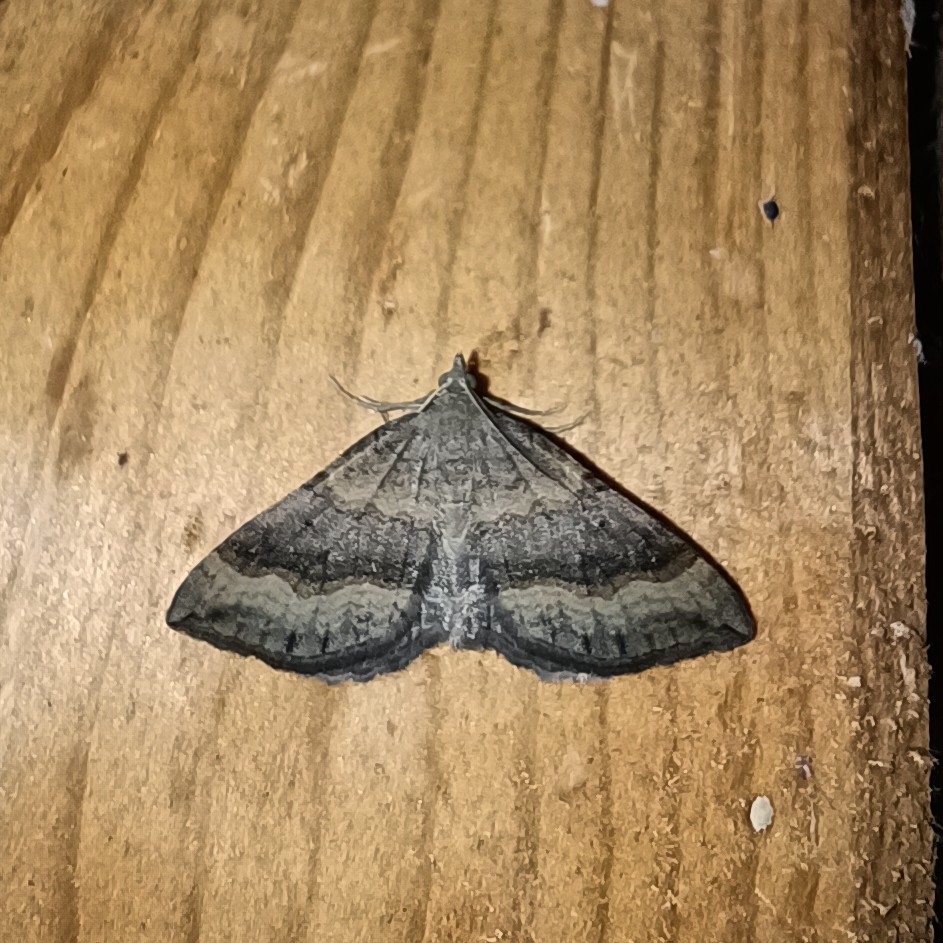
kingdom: Animalia
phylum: Arthropoda
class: Insecta
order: Lepidoptera
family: Geometridae
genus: Scotopteryx
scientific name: Scotopteryx chenopodiata
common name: Shaded broad-bar
